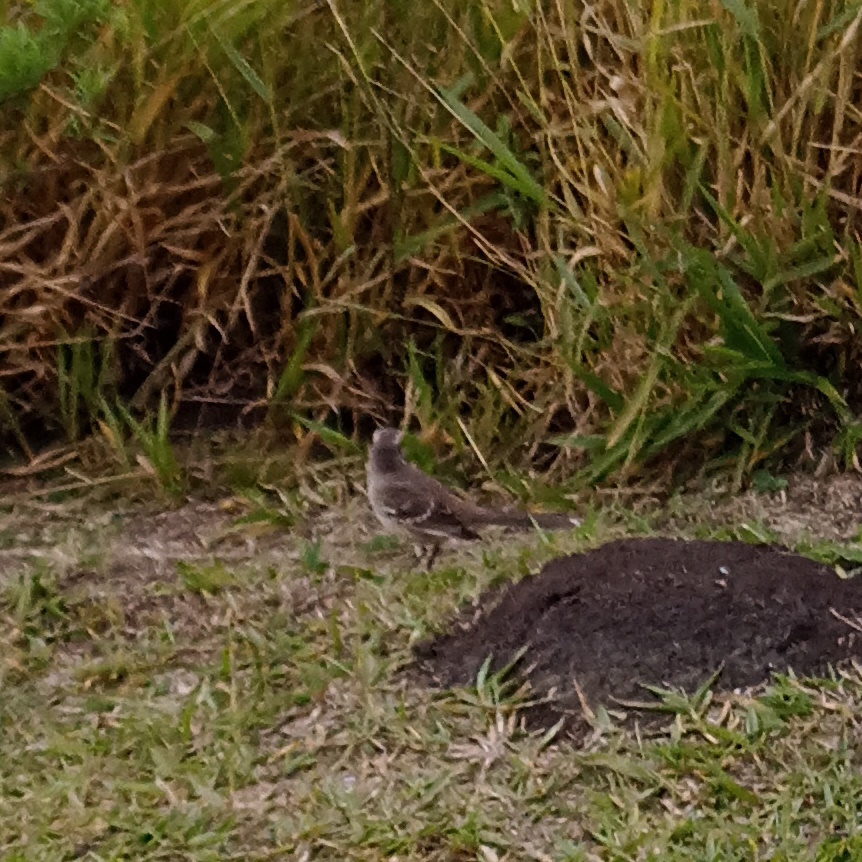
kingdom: Animalia
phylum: Chordata
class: Aves
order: Passeriformes
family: Mimidae
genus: Mimus
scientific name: Mimus saturninus
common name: Chalk-browed mockingbird
